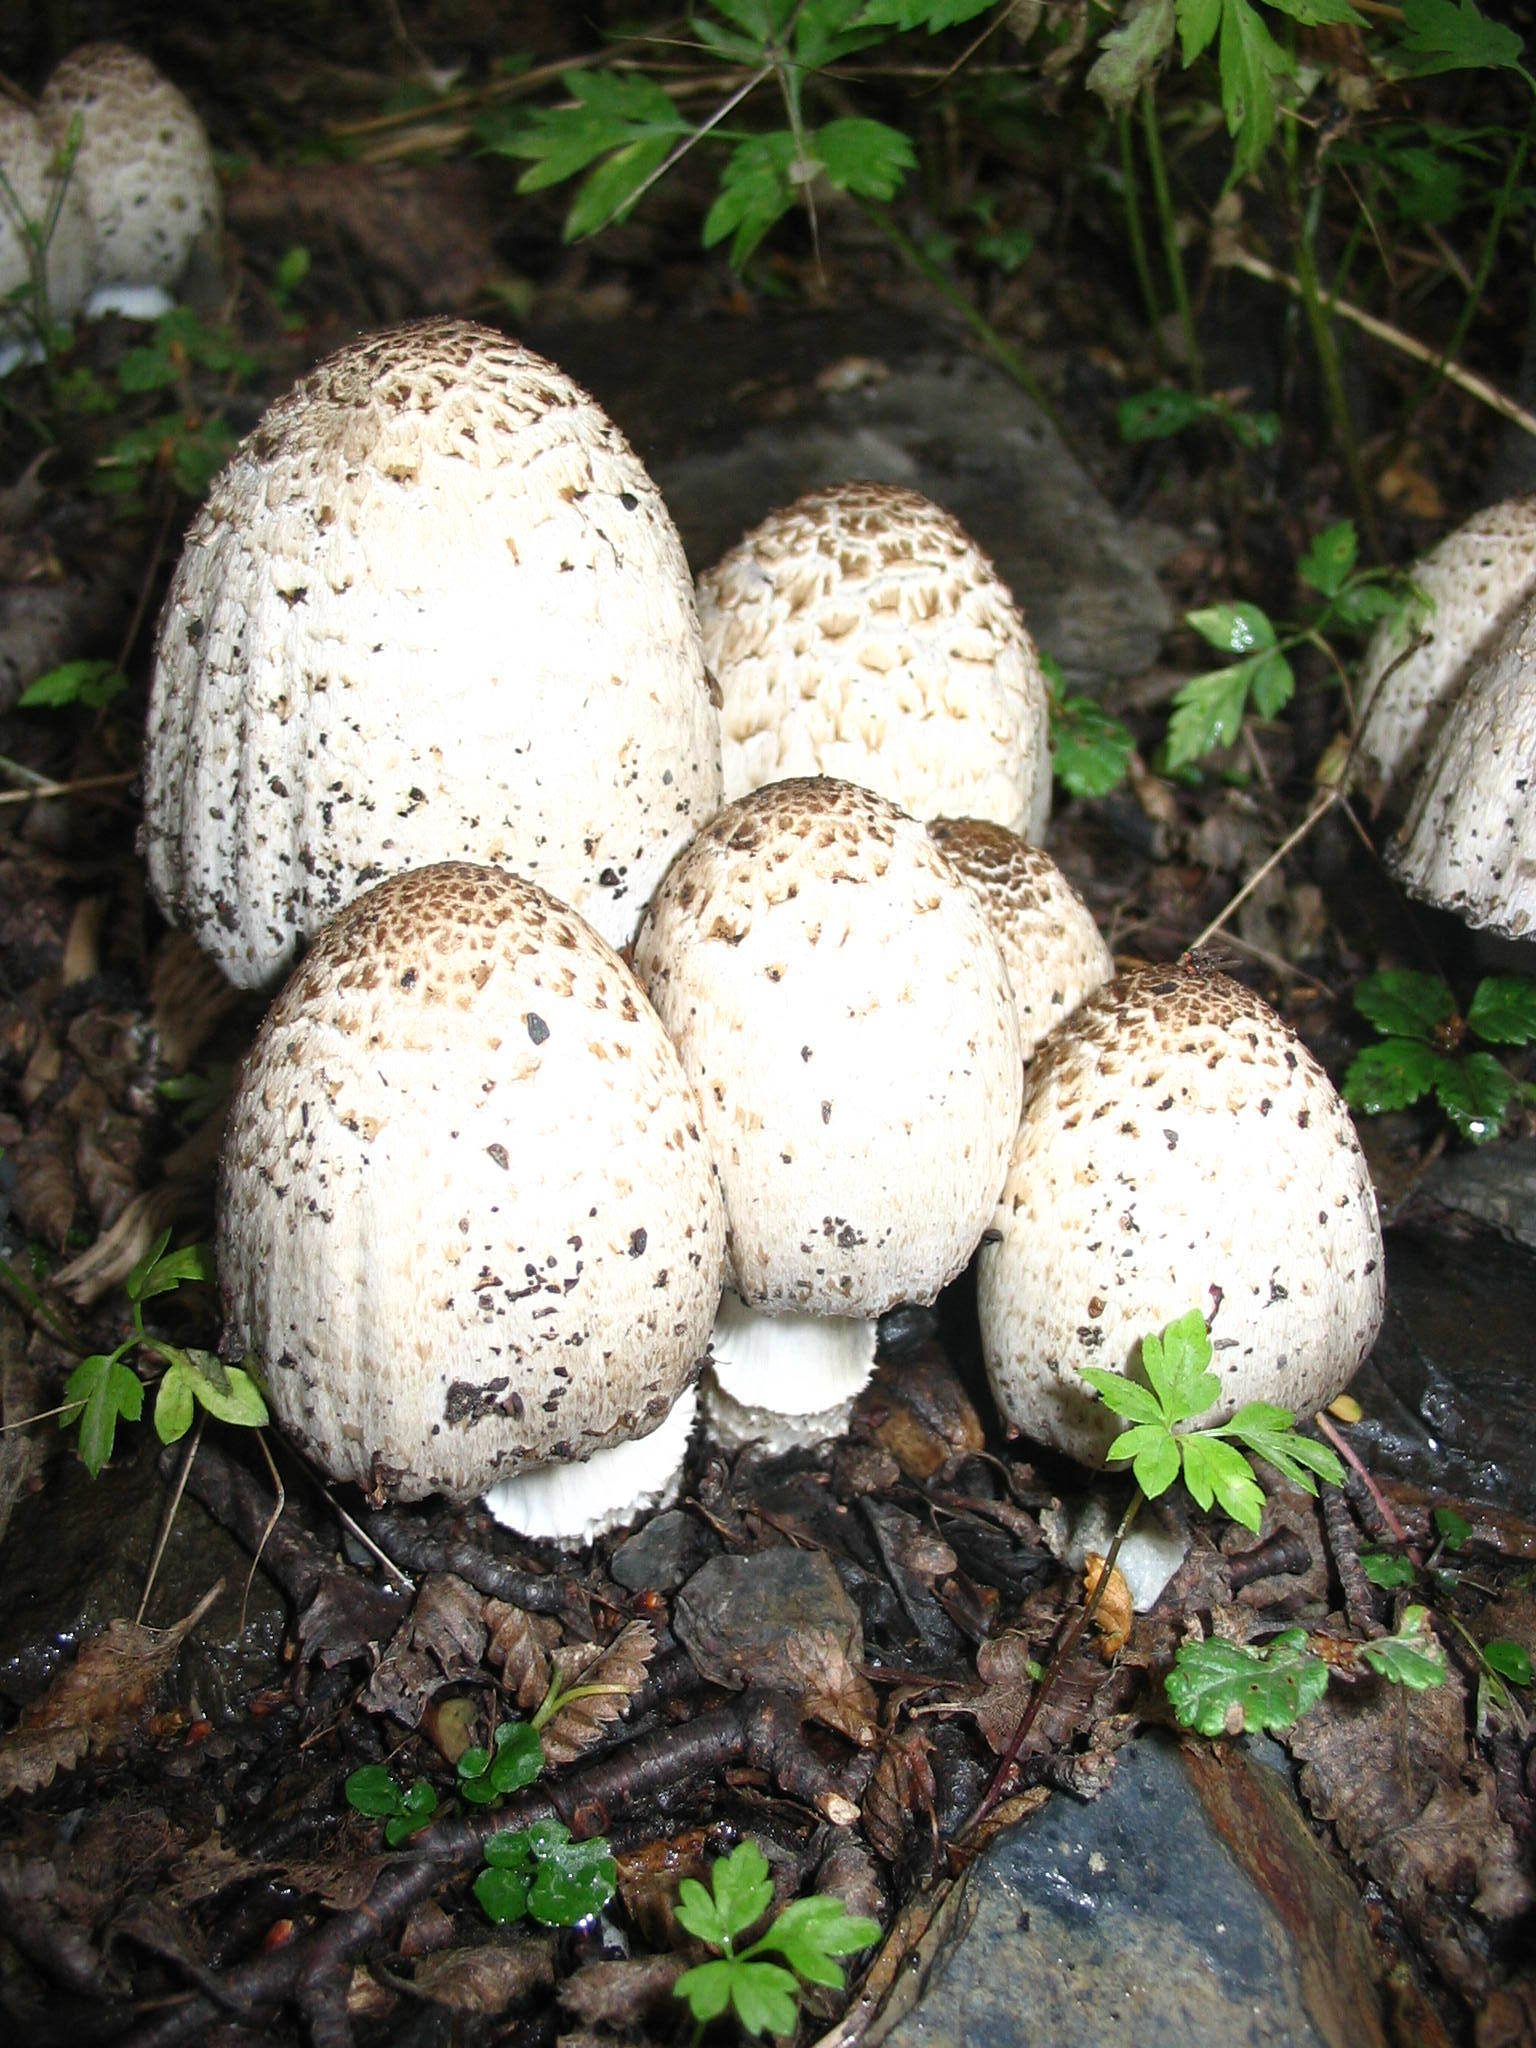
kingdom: Fungi
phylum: Basidiomycota
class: Agaricomycetes
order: Agaricales
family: Agaricaceae
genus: Coprinus
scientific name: Coprinus comatus
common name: Lawyer's wig
